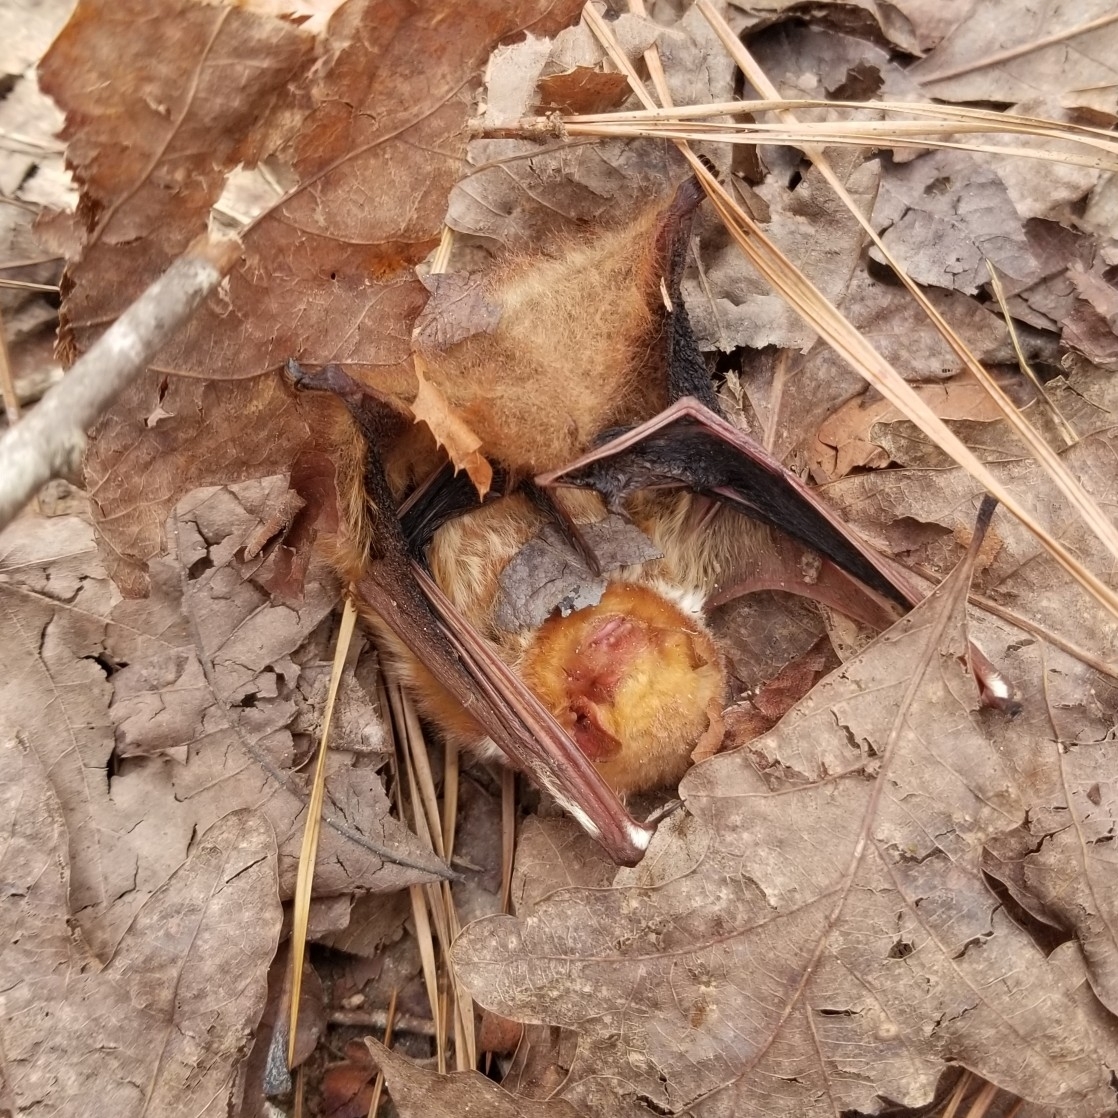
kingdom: Animalia
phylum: Chordata
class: Mammalia
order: Chiroptera
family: Vespertilionidae
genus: Lasiurus
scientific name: Lasiurus borealis
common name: Eastern red bat
